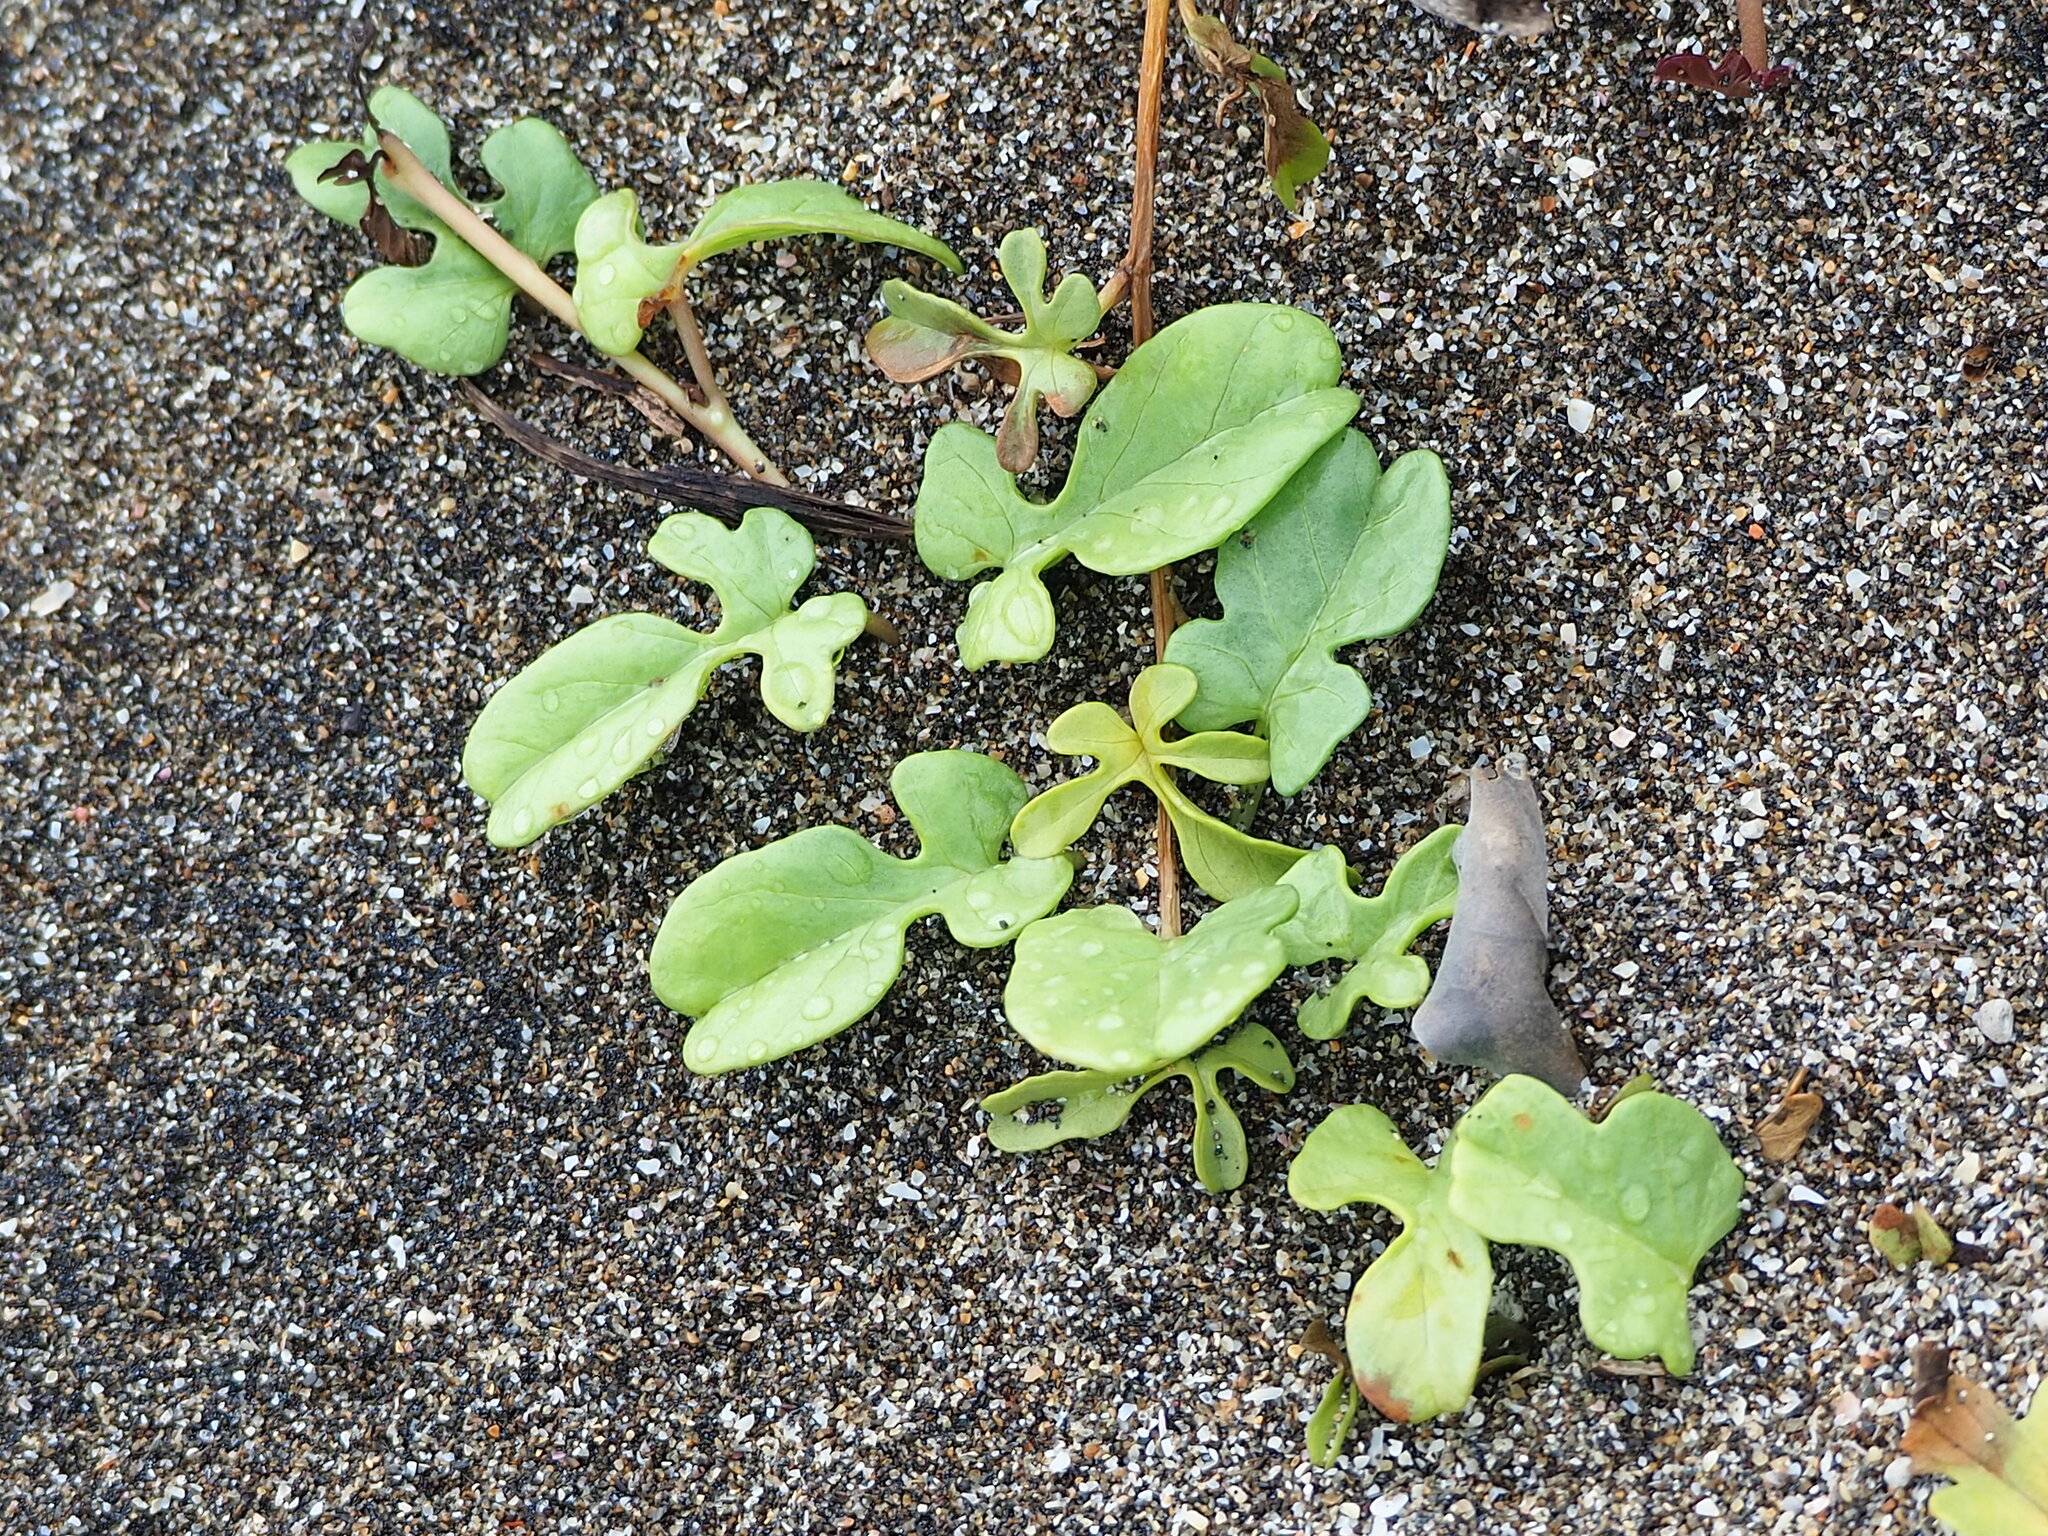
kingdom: Plantae
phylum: Tracheophyta
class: Magnoliopsida
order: Solanales
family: Convolvulaceae
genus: Ipomoea
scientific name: Ipomoea imperati
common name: Fiddle-leaf morning-glory
